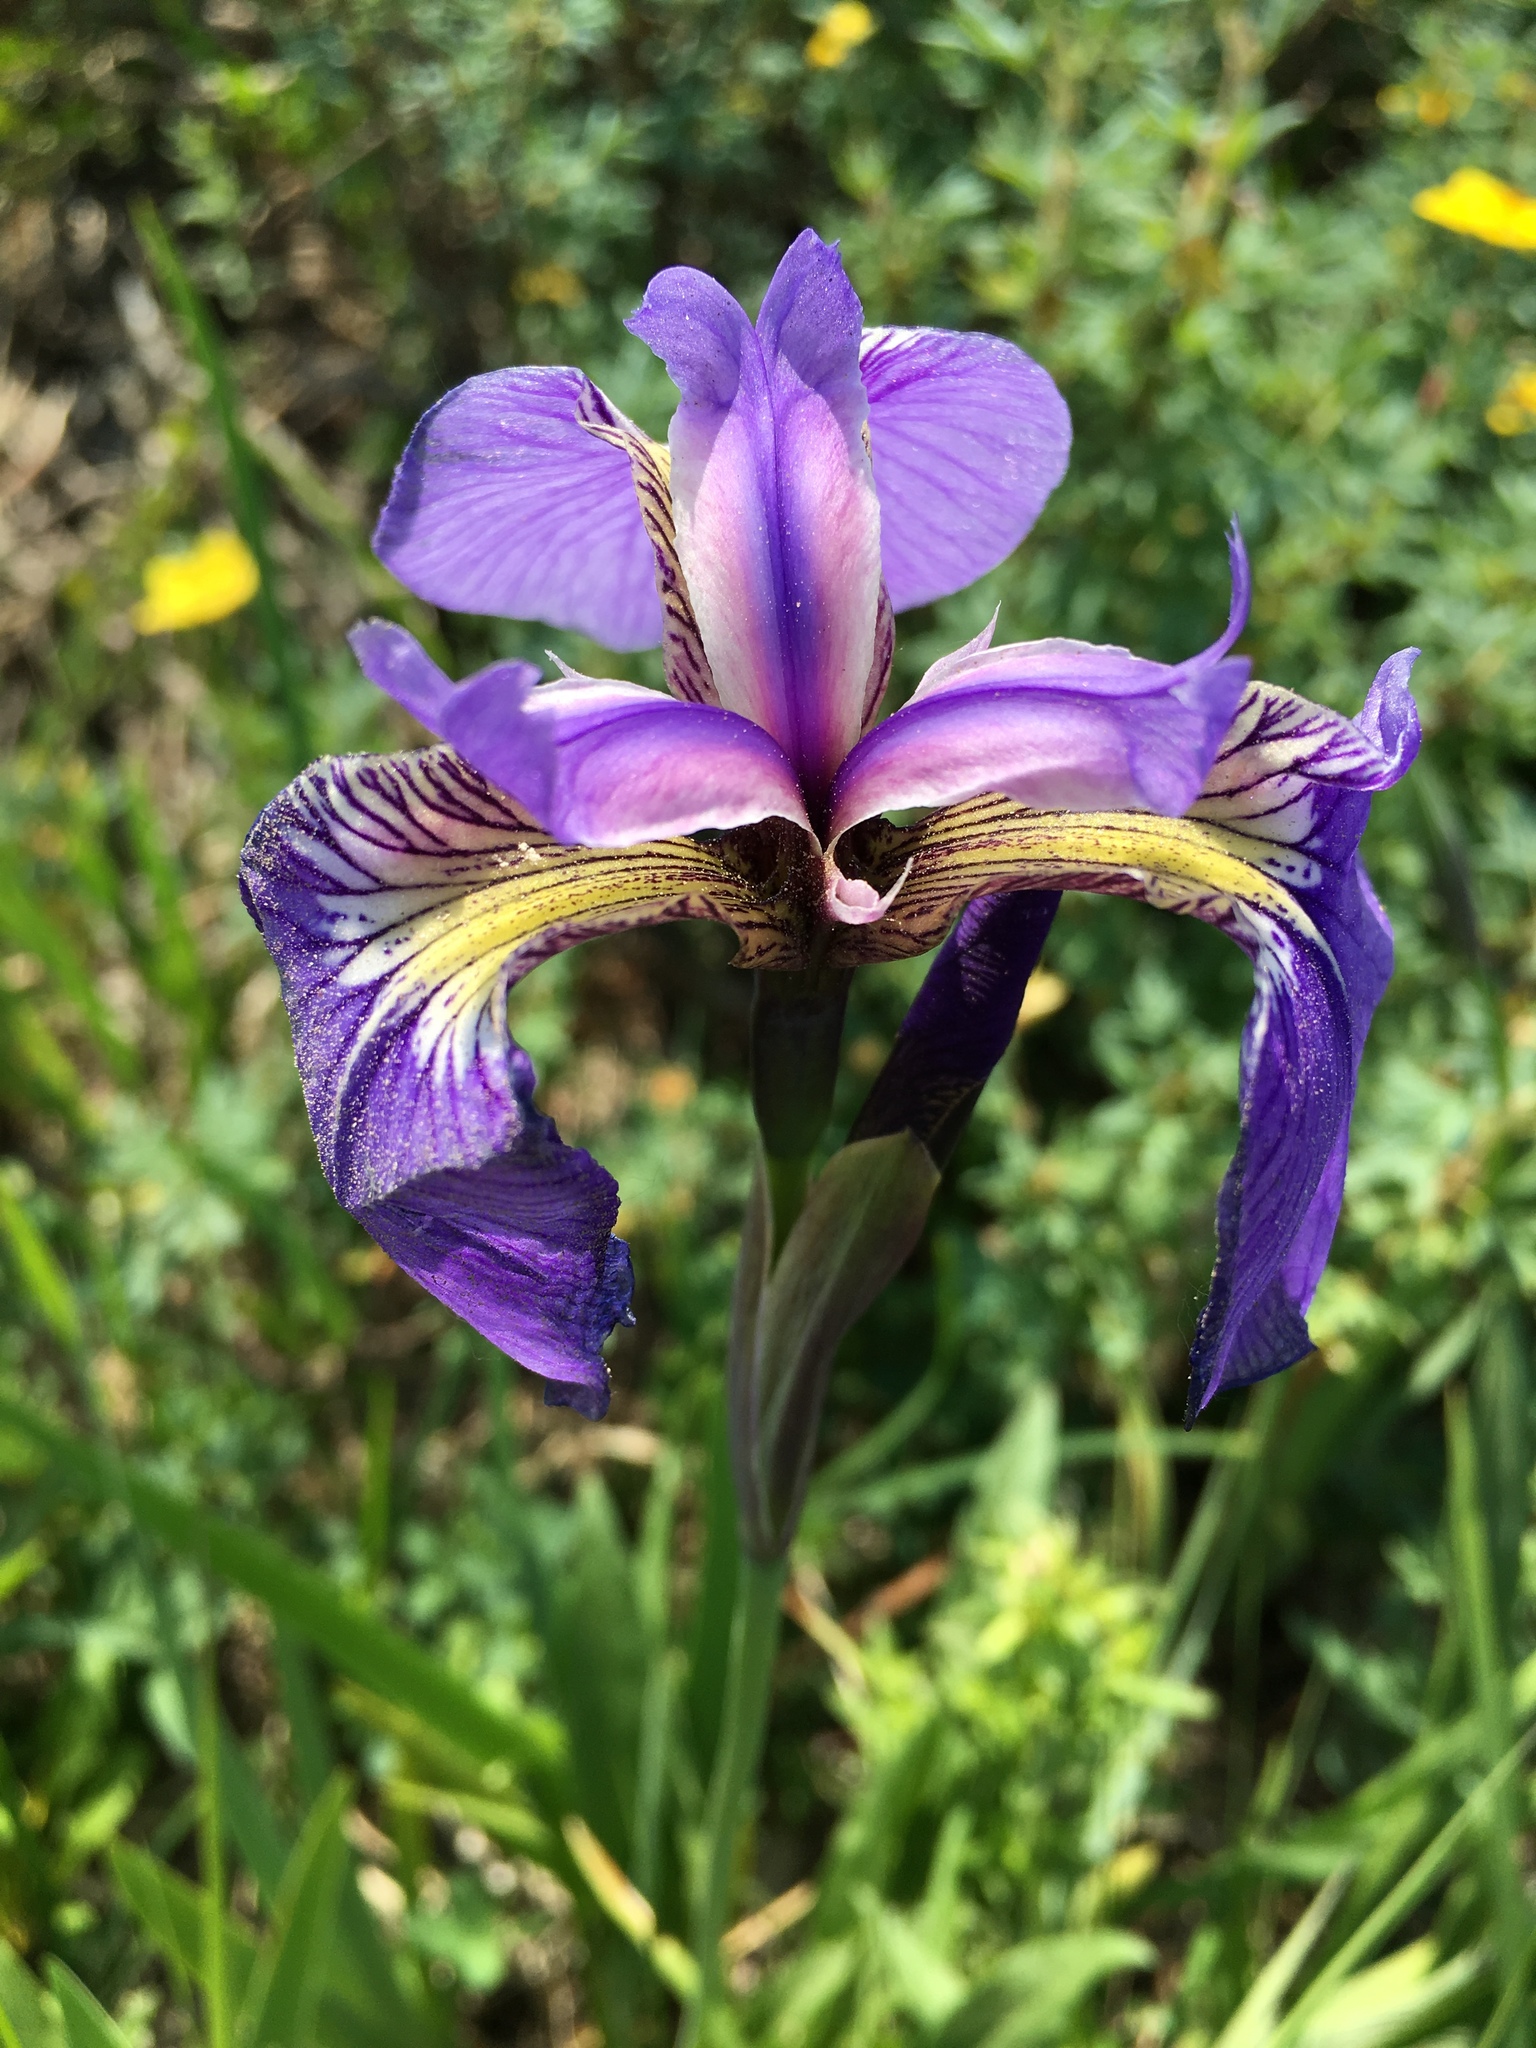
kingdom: Plantae
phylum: Tracheophyta
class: Liliopsida
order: Asparagales
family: Iridaceae
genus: Iris
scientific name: Iris setosa
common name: Arctic blue flag
